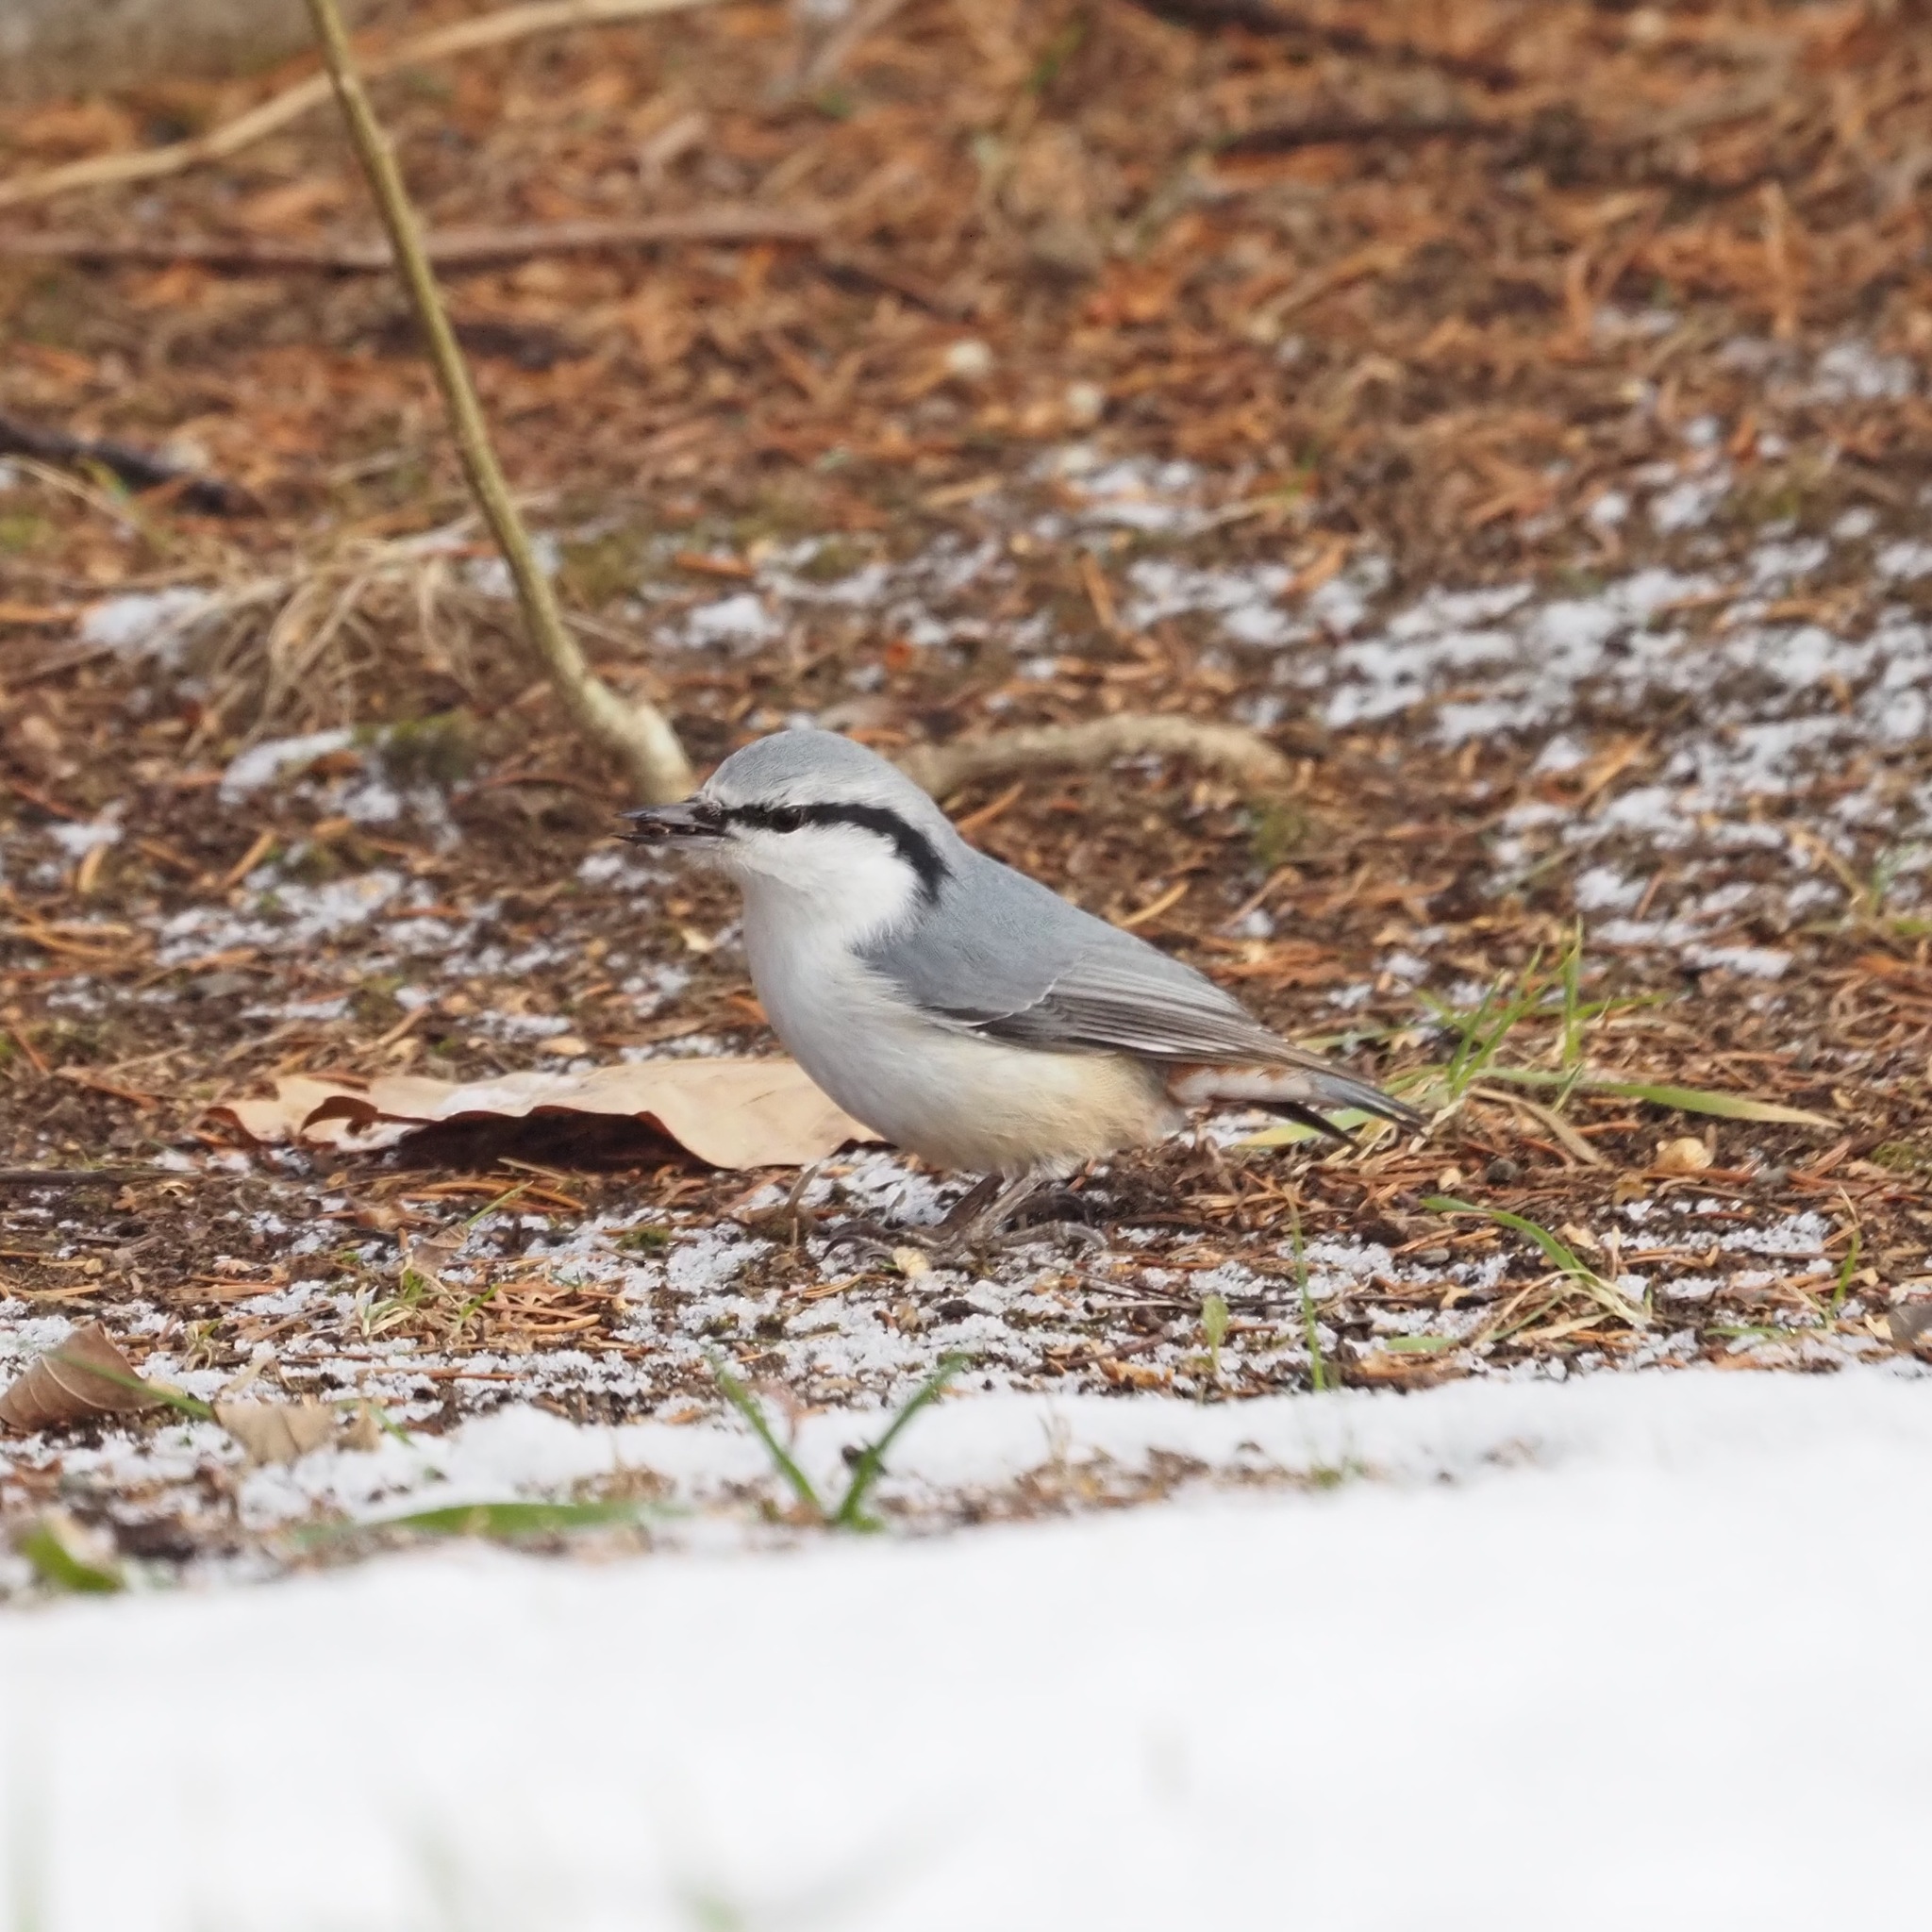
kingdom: Animalia
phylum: Chordata
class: Aves
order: Passeriformes
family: Sittidae
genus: Sitta
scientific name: Sitta europaea
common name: Eurasian nuthatch
